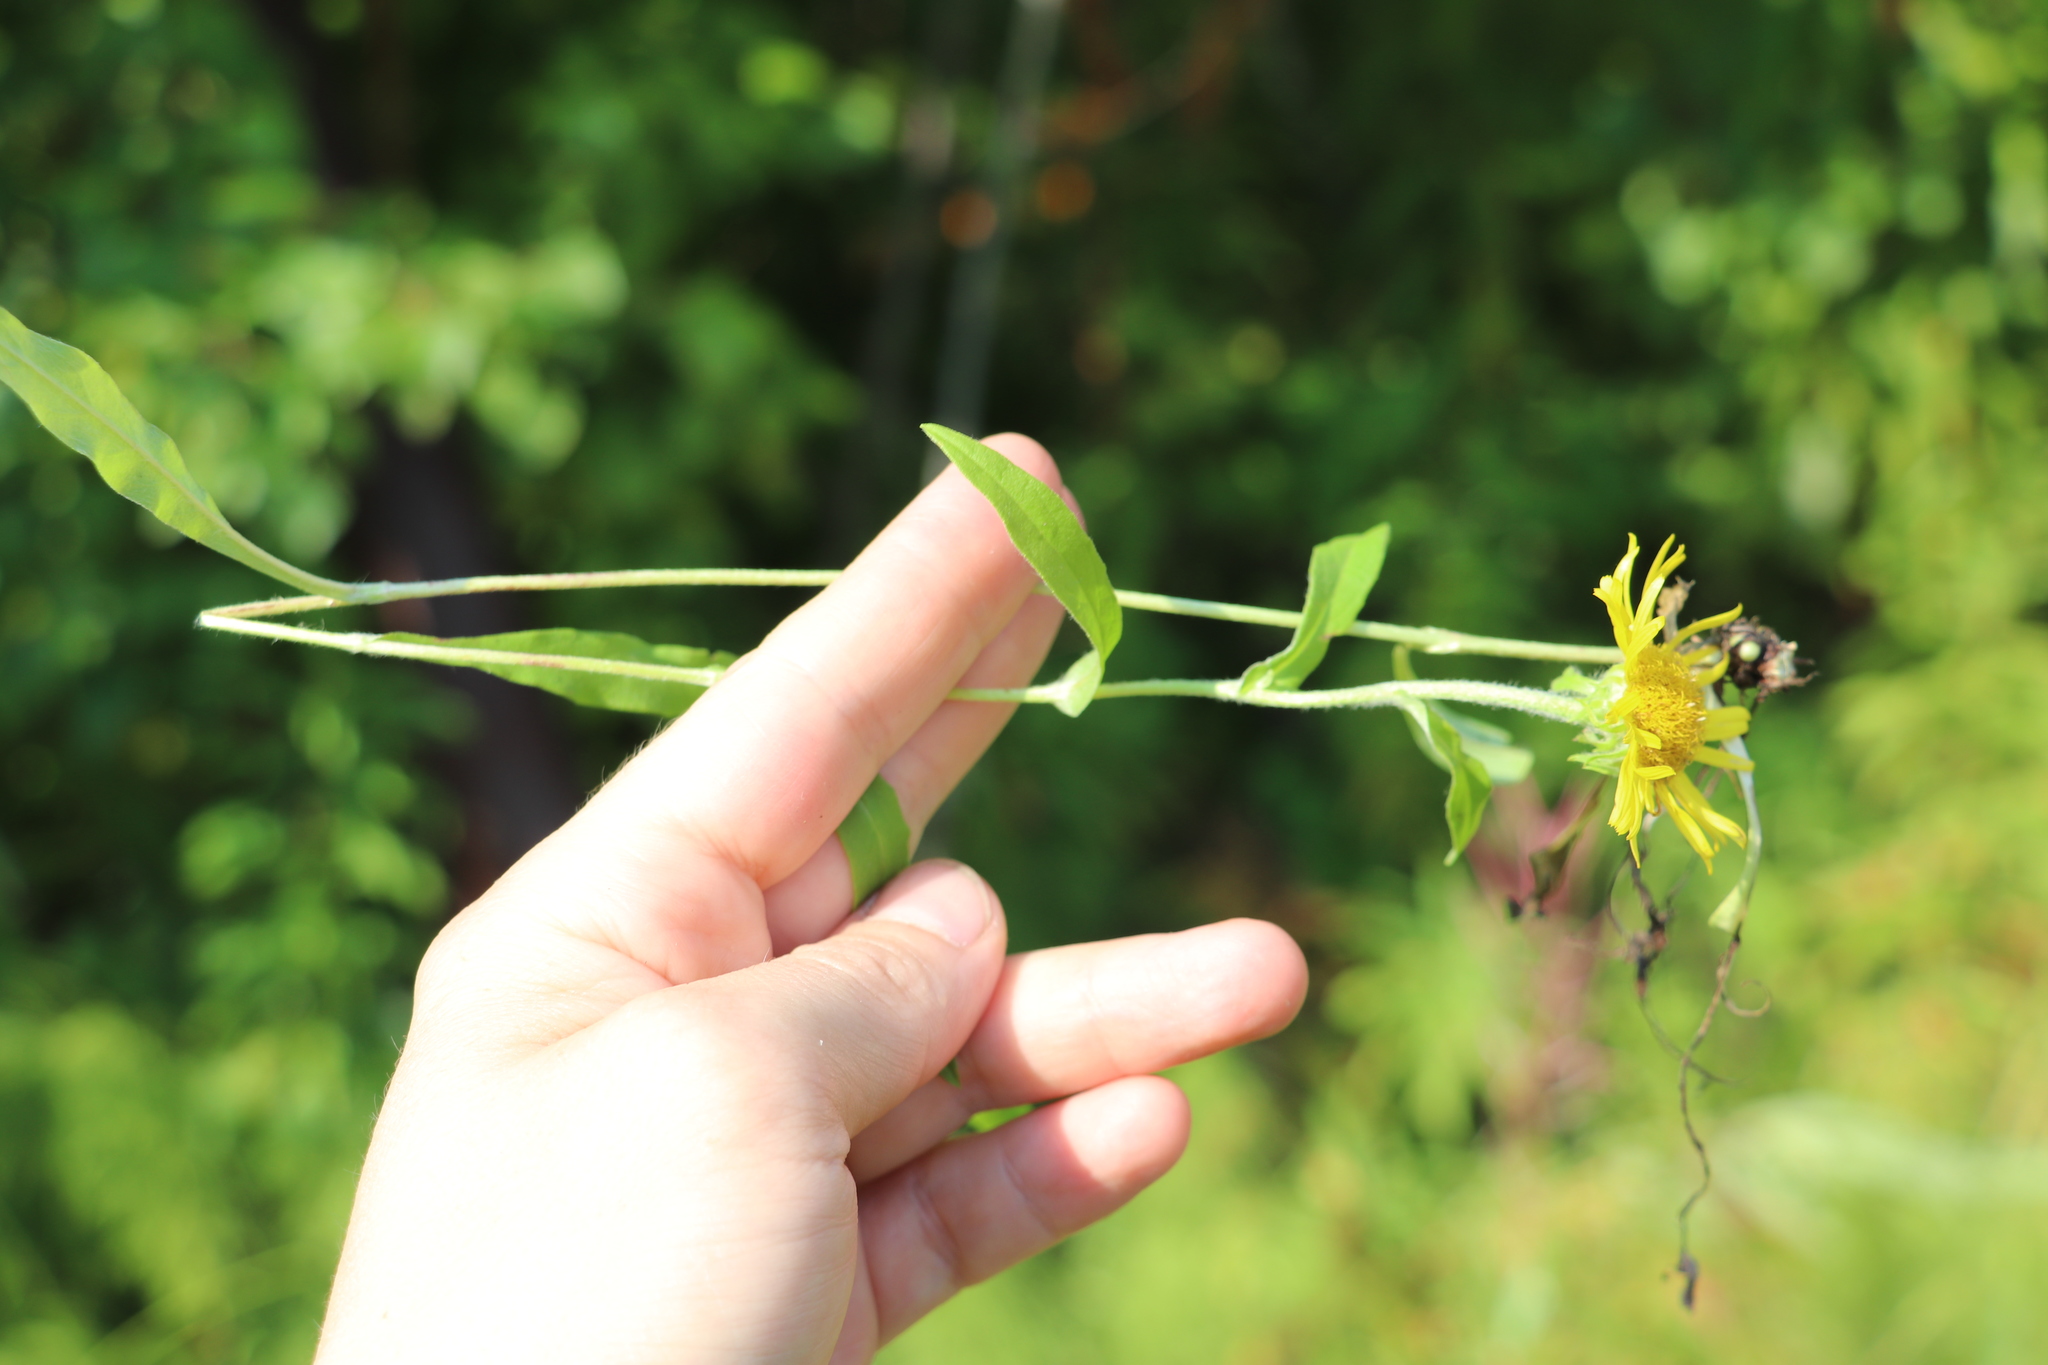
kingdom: Plantae
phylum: Tracheophyta
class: Magnoliopsida
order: Asterales
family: Asteraceae
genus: Pentanema
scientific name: Pentanema britannicum
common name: British elecampane
